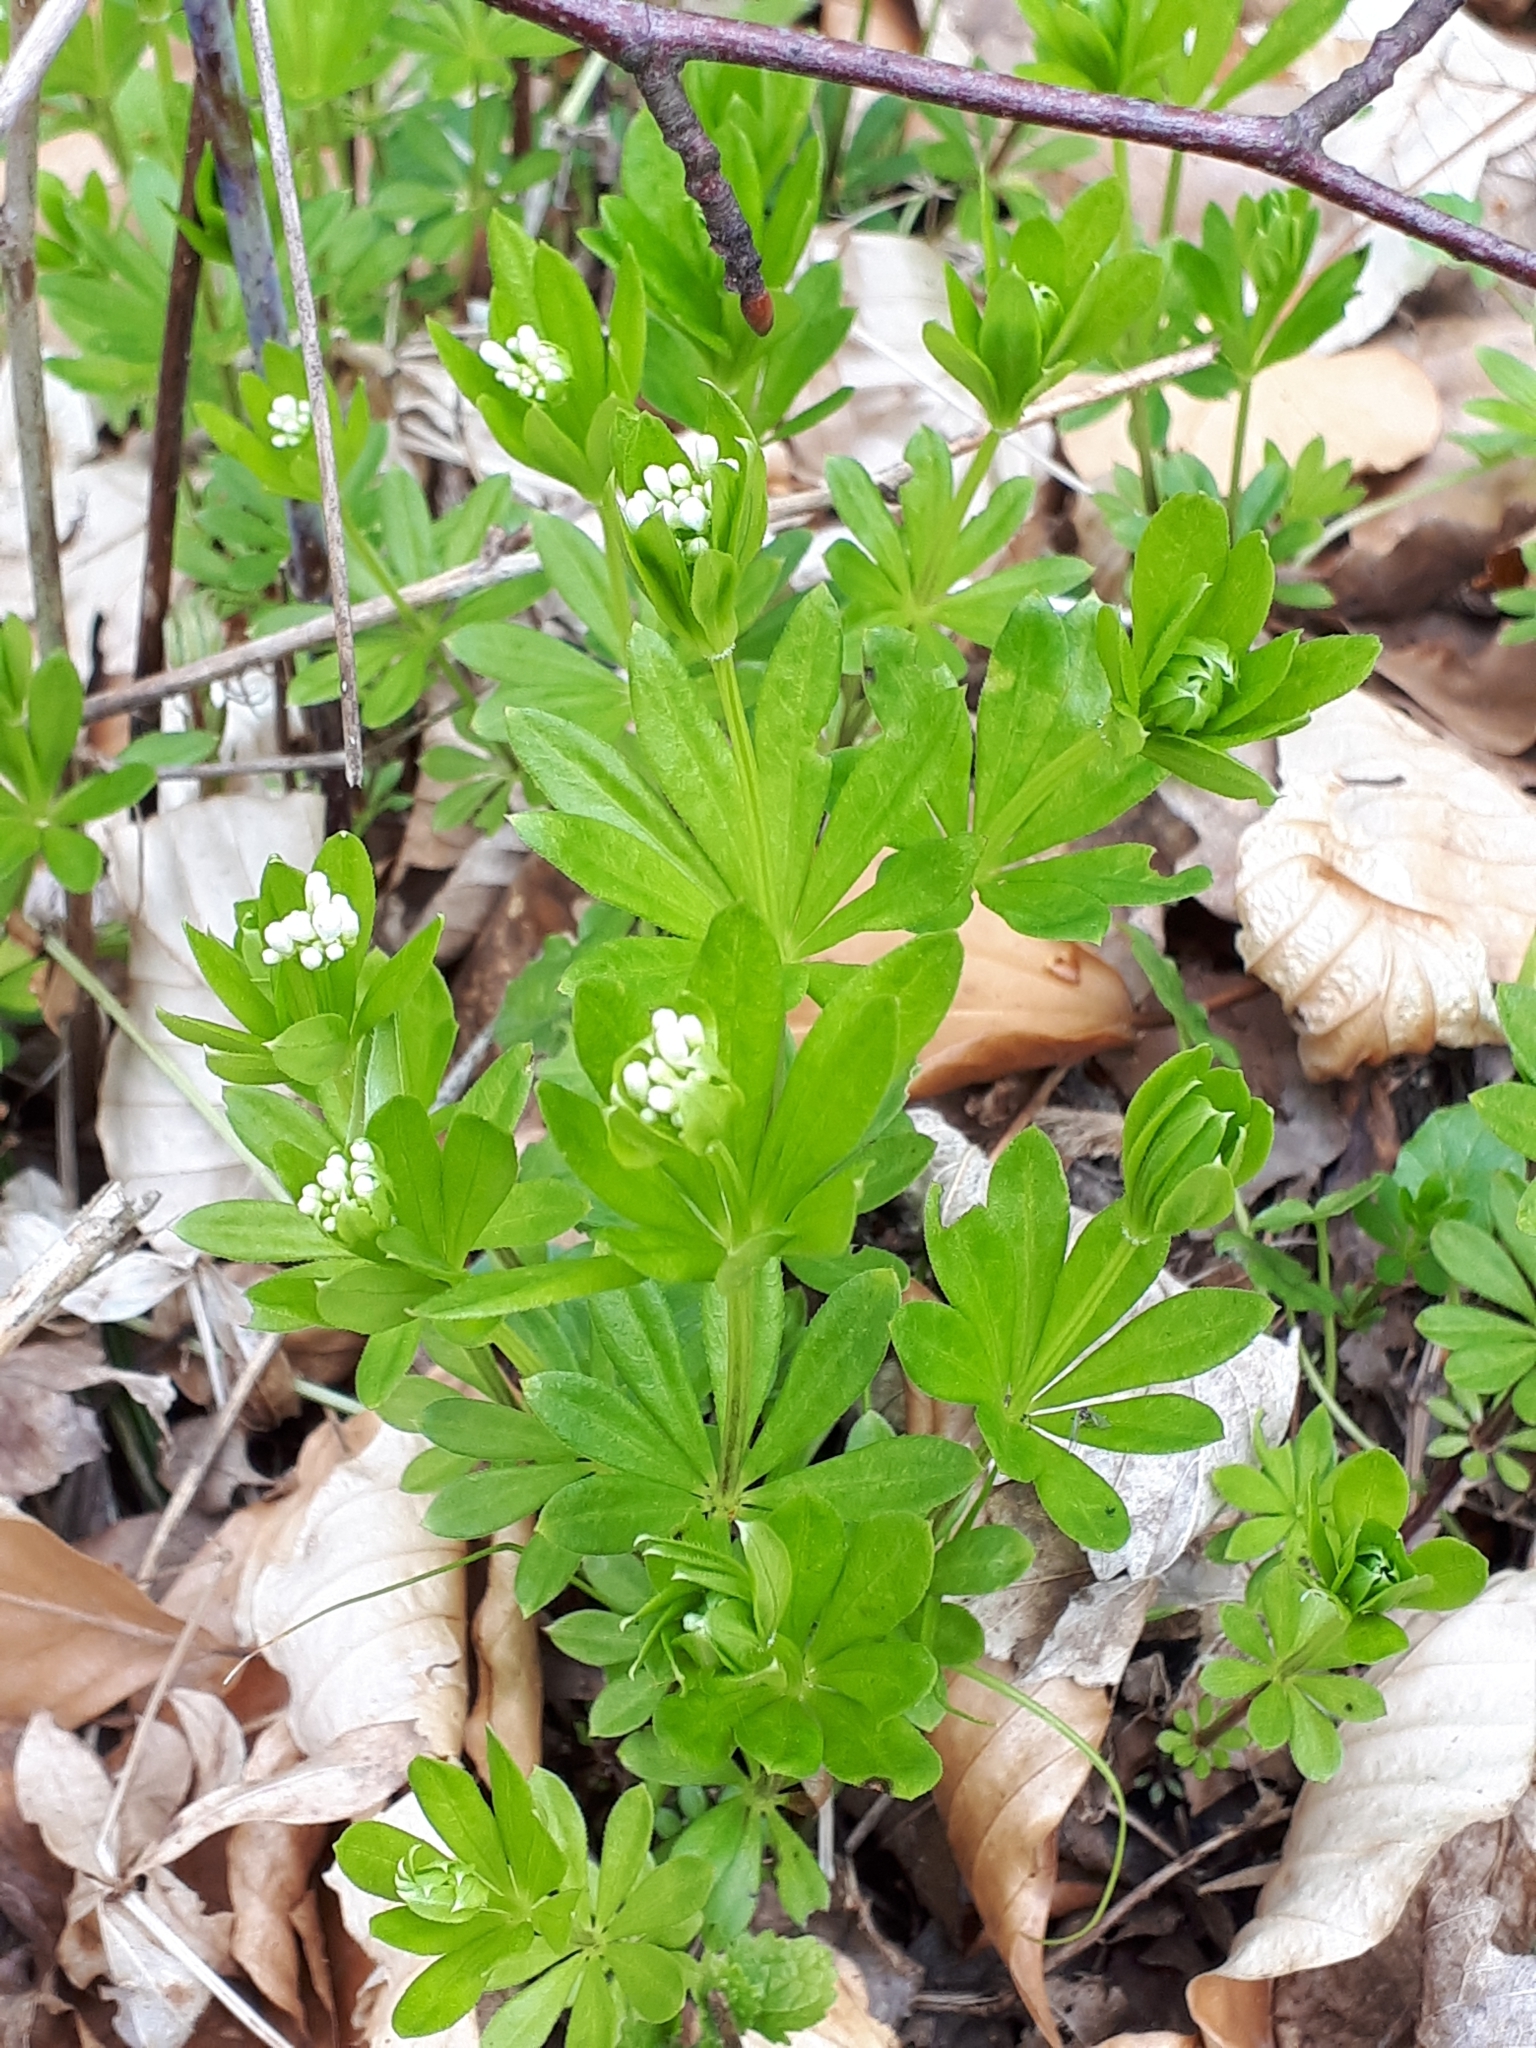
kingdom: Plantae
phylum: Tracheophyta
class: Magnoliopsida
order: Gentianales
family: Rubiaceae
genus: Galium
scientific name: Galium odoratum
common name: Sweet woodruff
